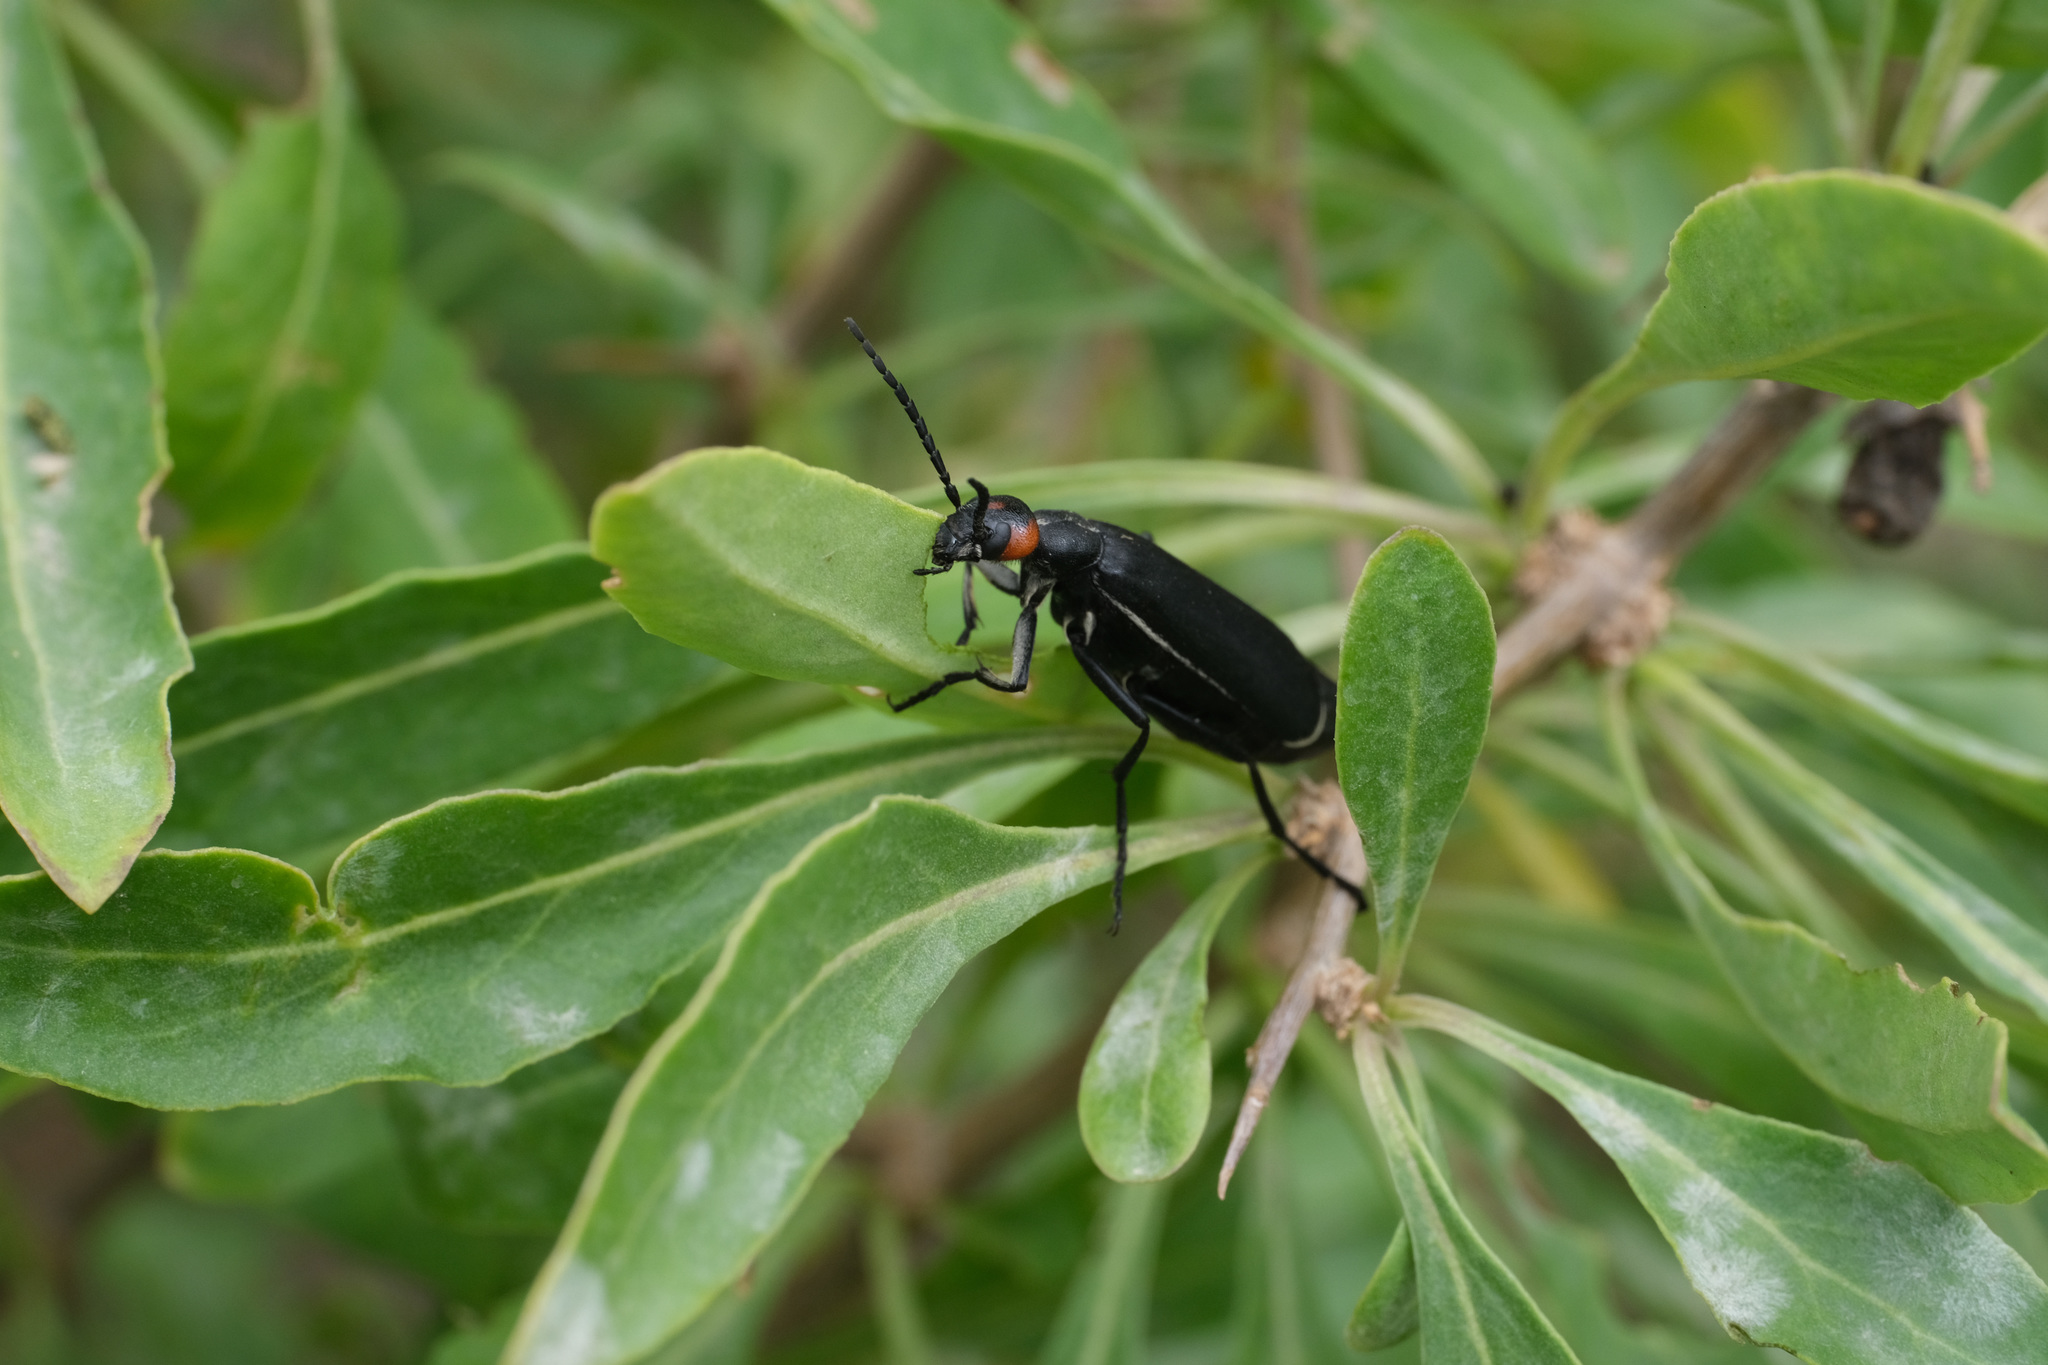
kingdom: Animalia
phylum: Arthropoda
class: Insecta
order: Coleoptera
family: Meloidae
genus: Epicauta
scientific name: Epicauta flabellicornis
